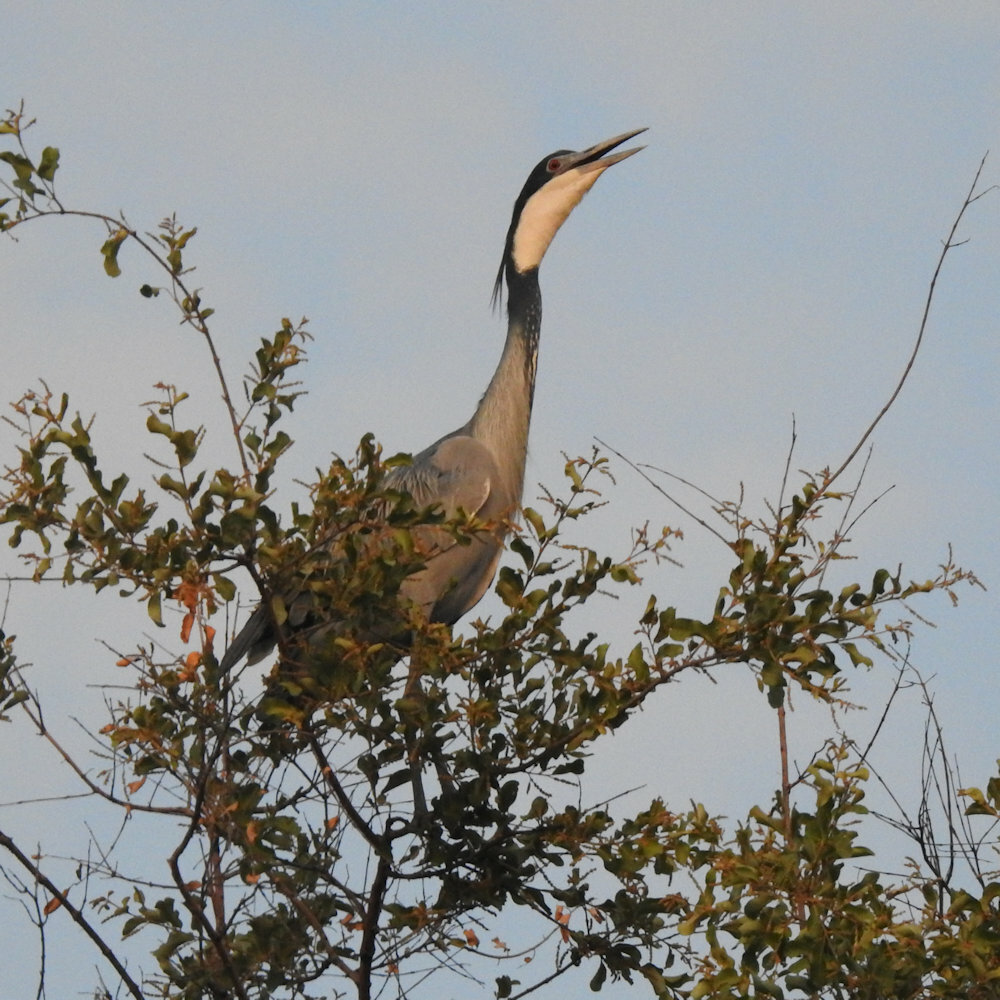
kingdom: Animalia
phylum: Chordata
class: Aves
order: Pelecaniformes
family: Ardeidae
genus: Ardea
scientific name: Ardea melanocephala
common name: Black-headed heron
